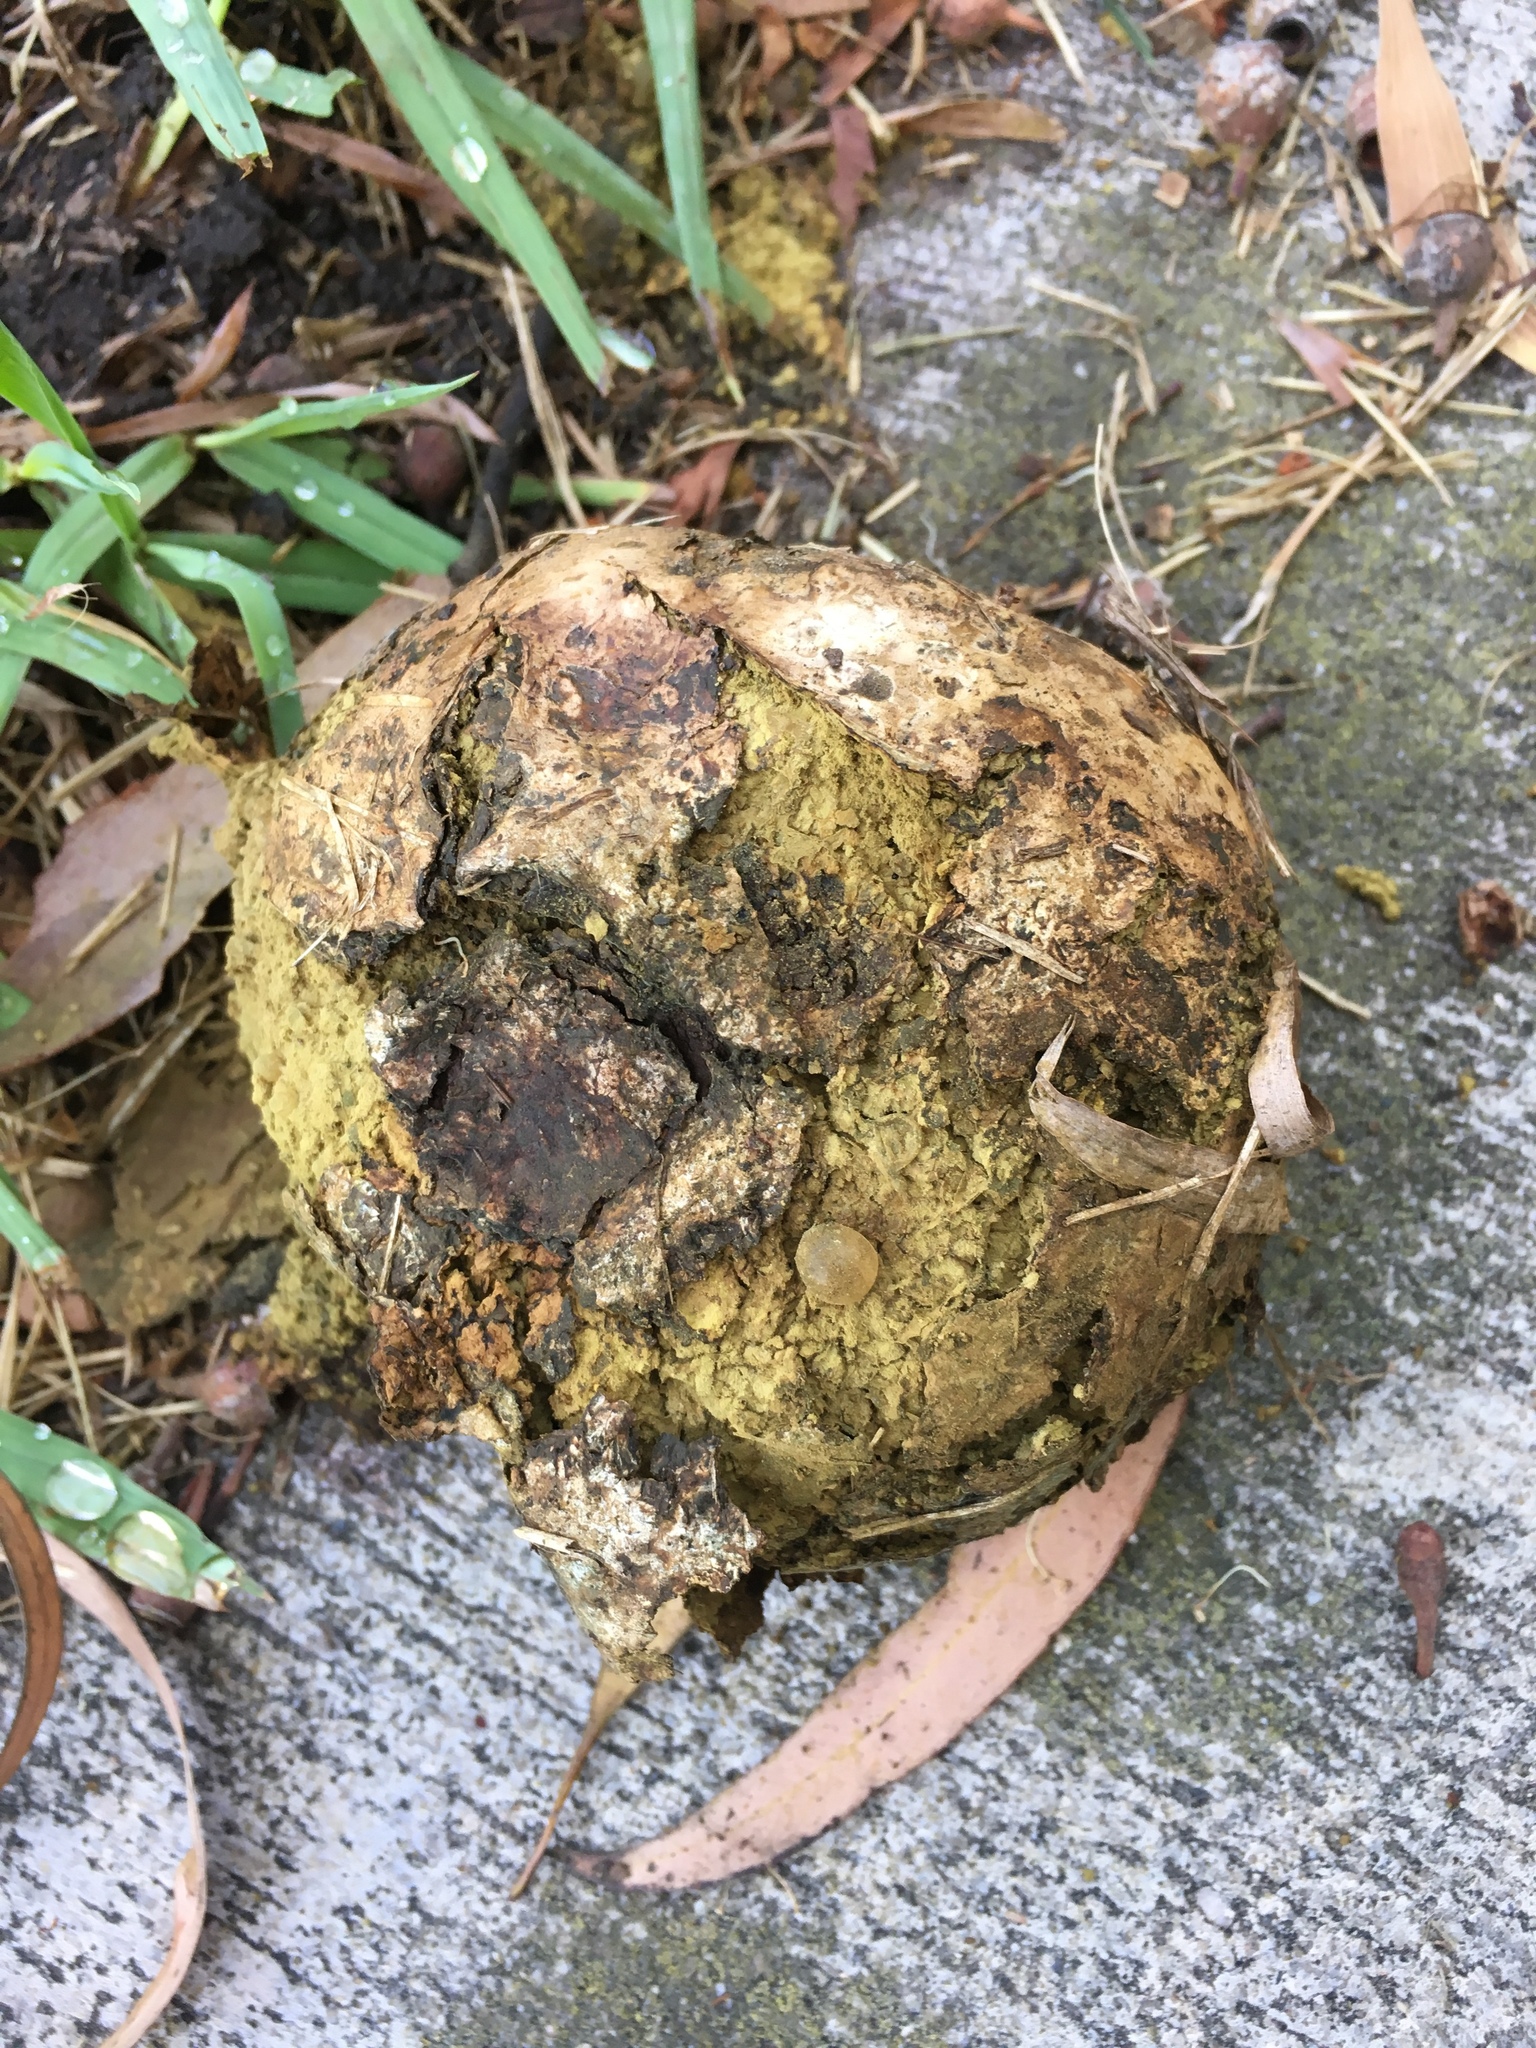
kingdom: Fungi
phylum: Basidiomycota
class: Agaricomycetes
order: Boletales
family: Sclerodermataceae
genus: Pisolithus
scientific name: Pisolithus arhizus
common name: Dyeball
